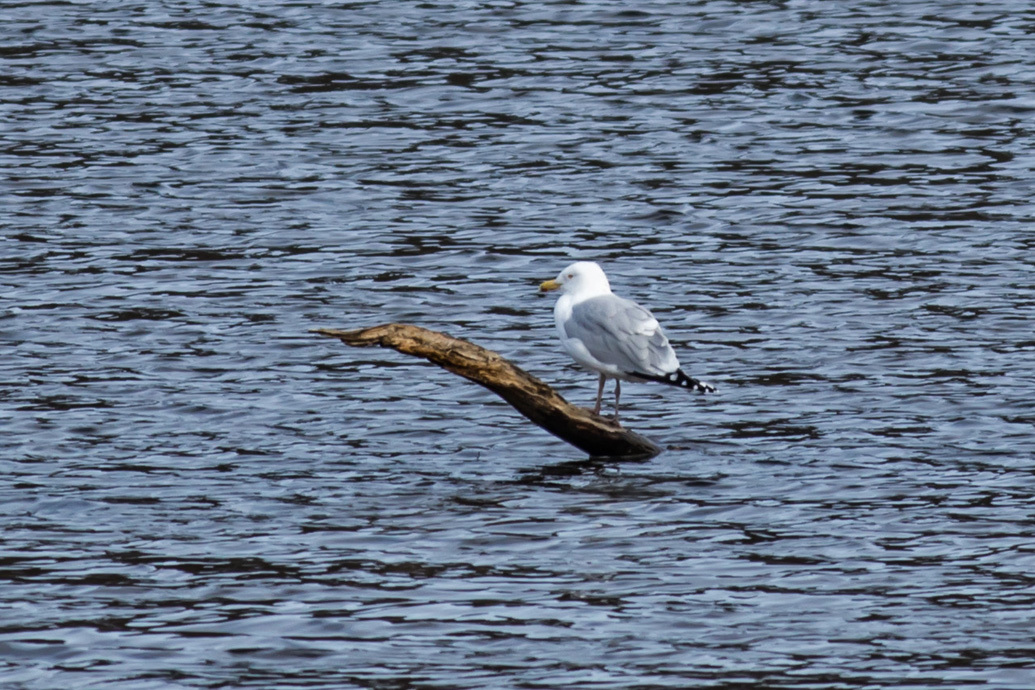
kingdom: Animalia
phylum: Chordata
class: Aves
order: Charadriiformes
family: Laridae
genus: Larus
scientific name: Larus argentatus
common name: Herring gull
